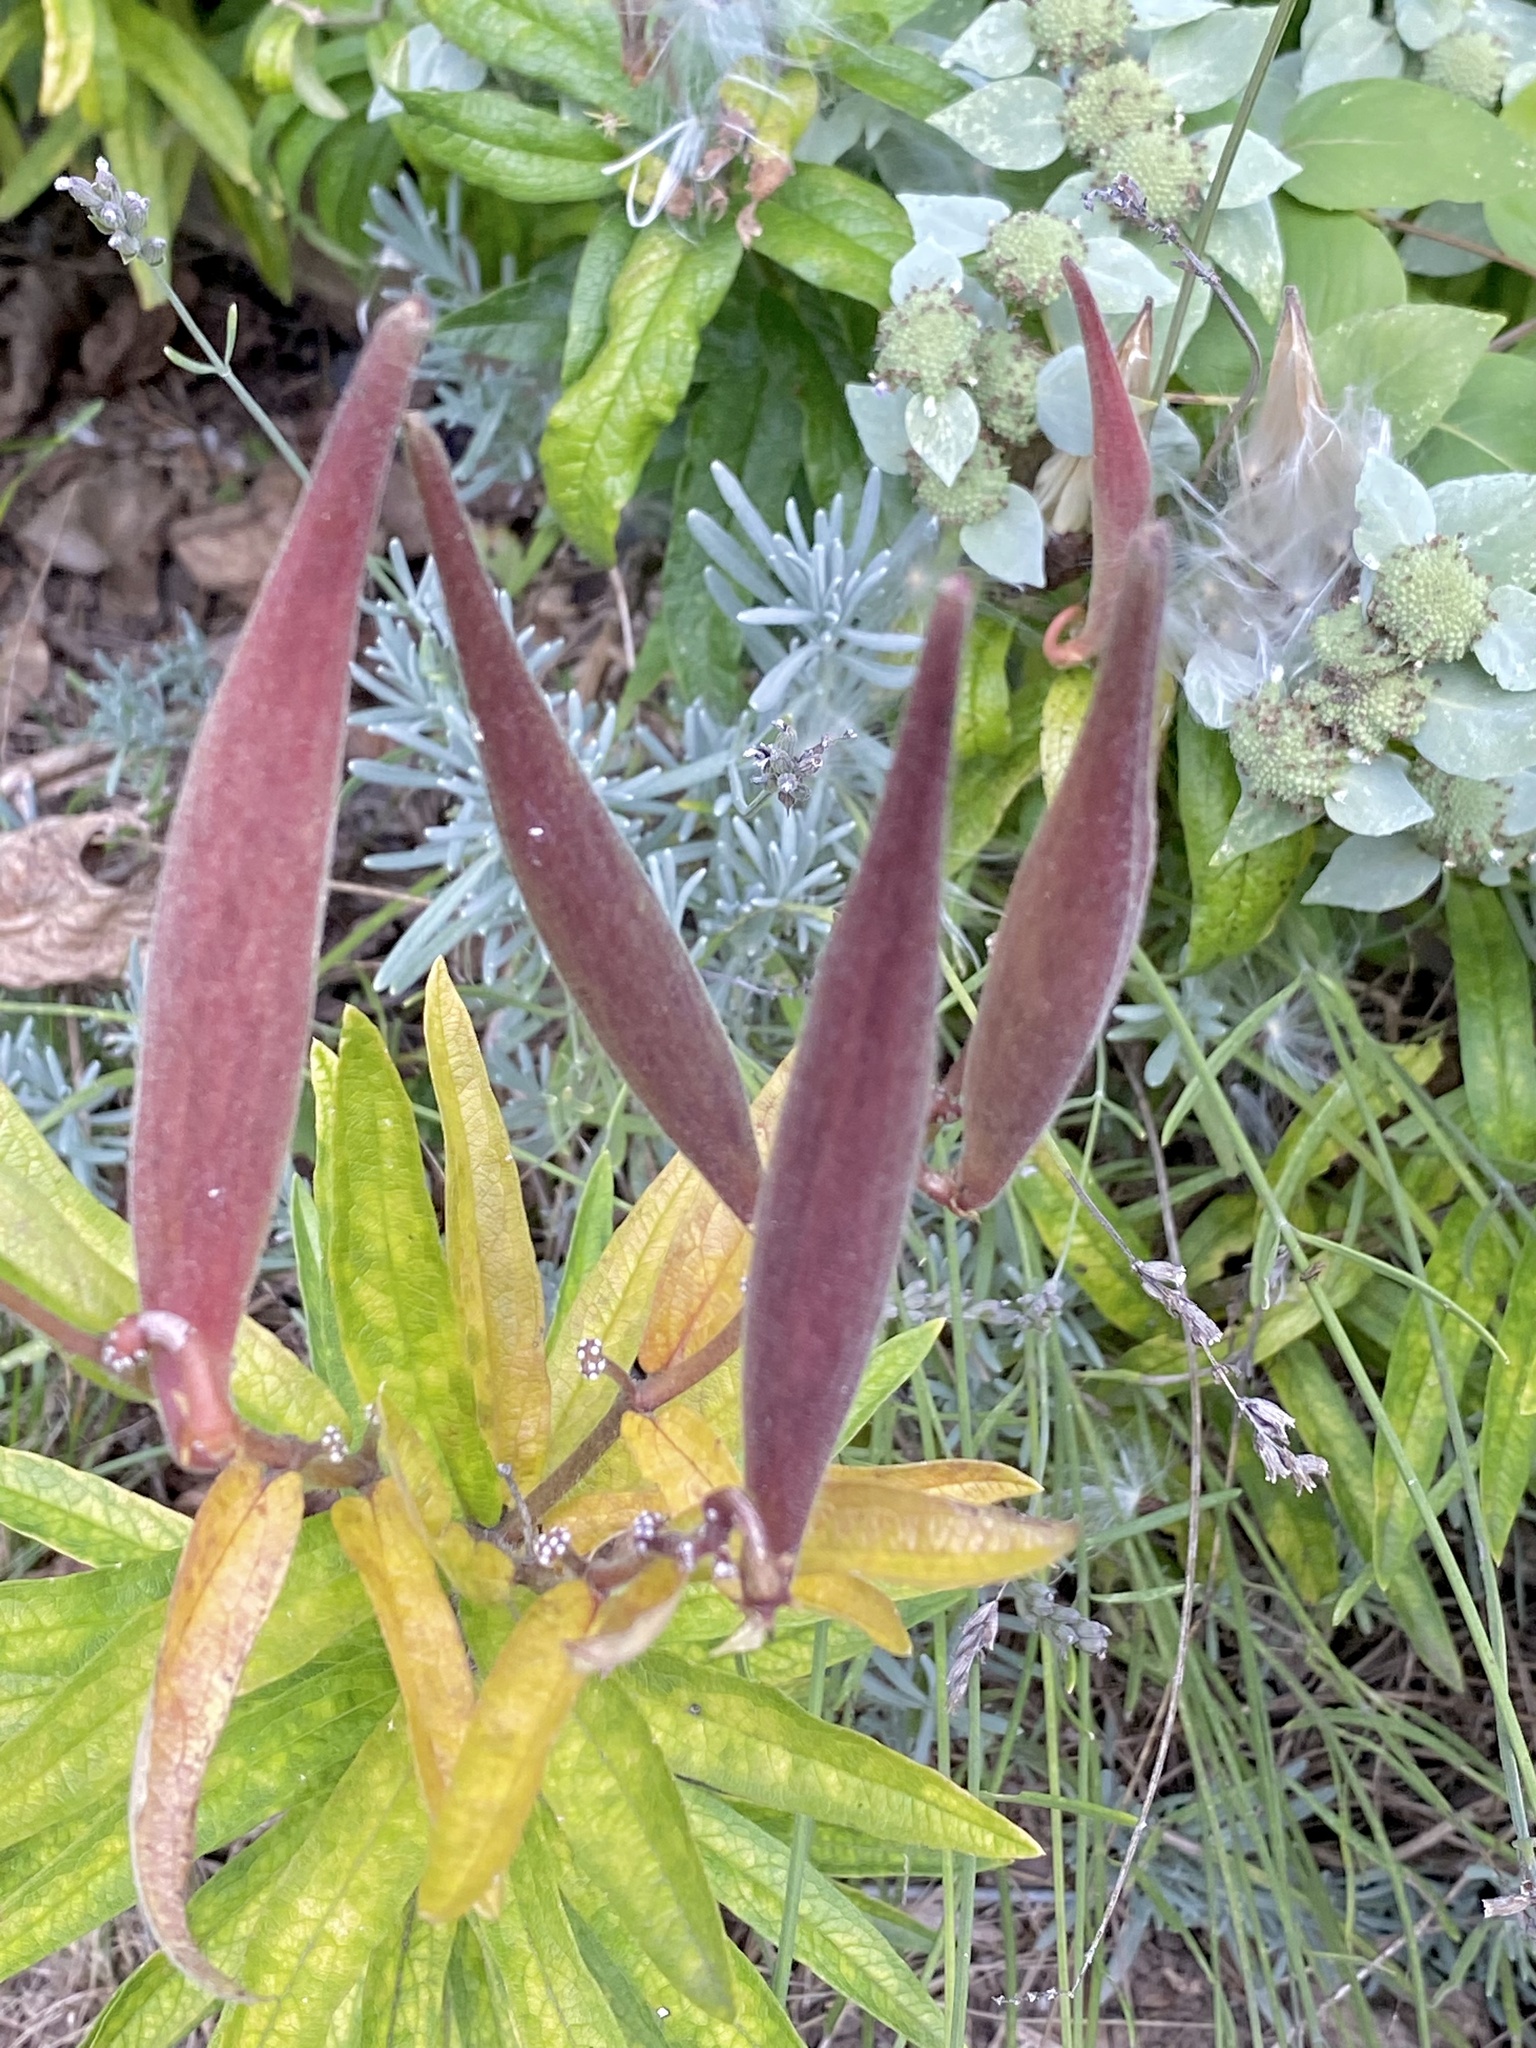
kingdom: Plantae
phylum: Tracheophyta
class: Magnoliopsida
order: Gentianales
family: Apocynaceae
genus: Asclepias
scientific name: Asclepias tuberosa
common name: Butterfly milkweed
